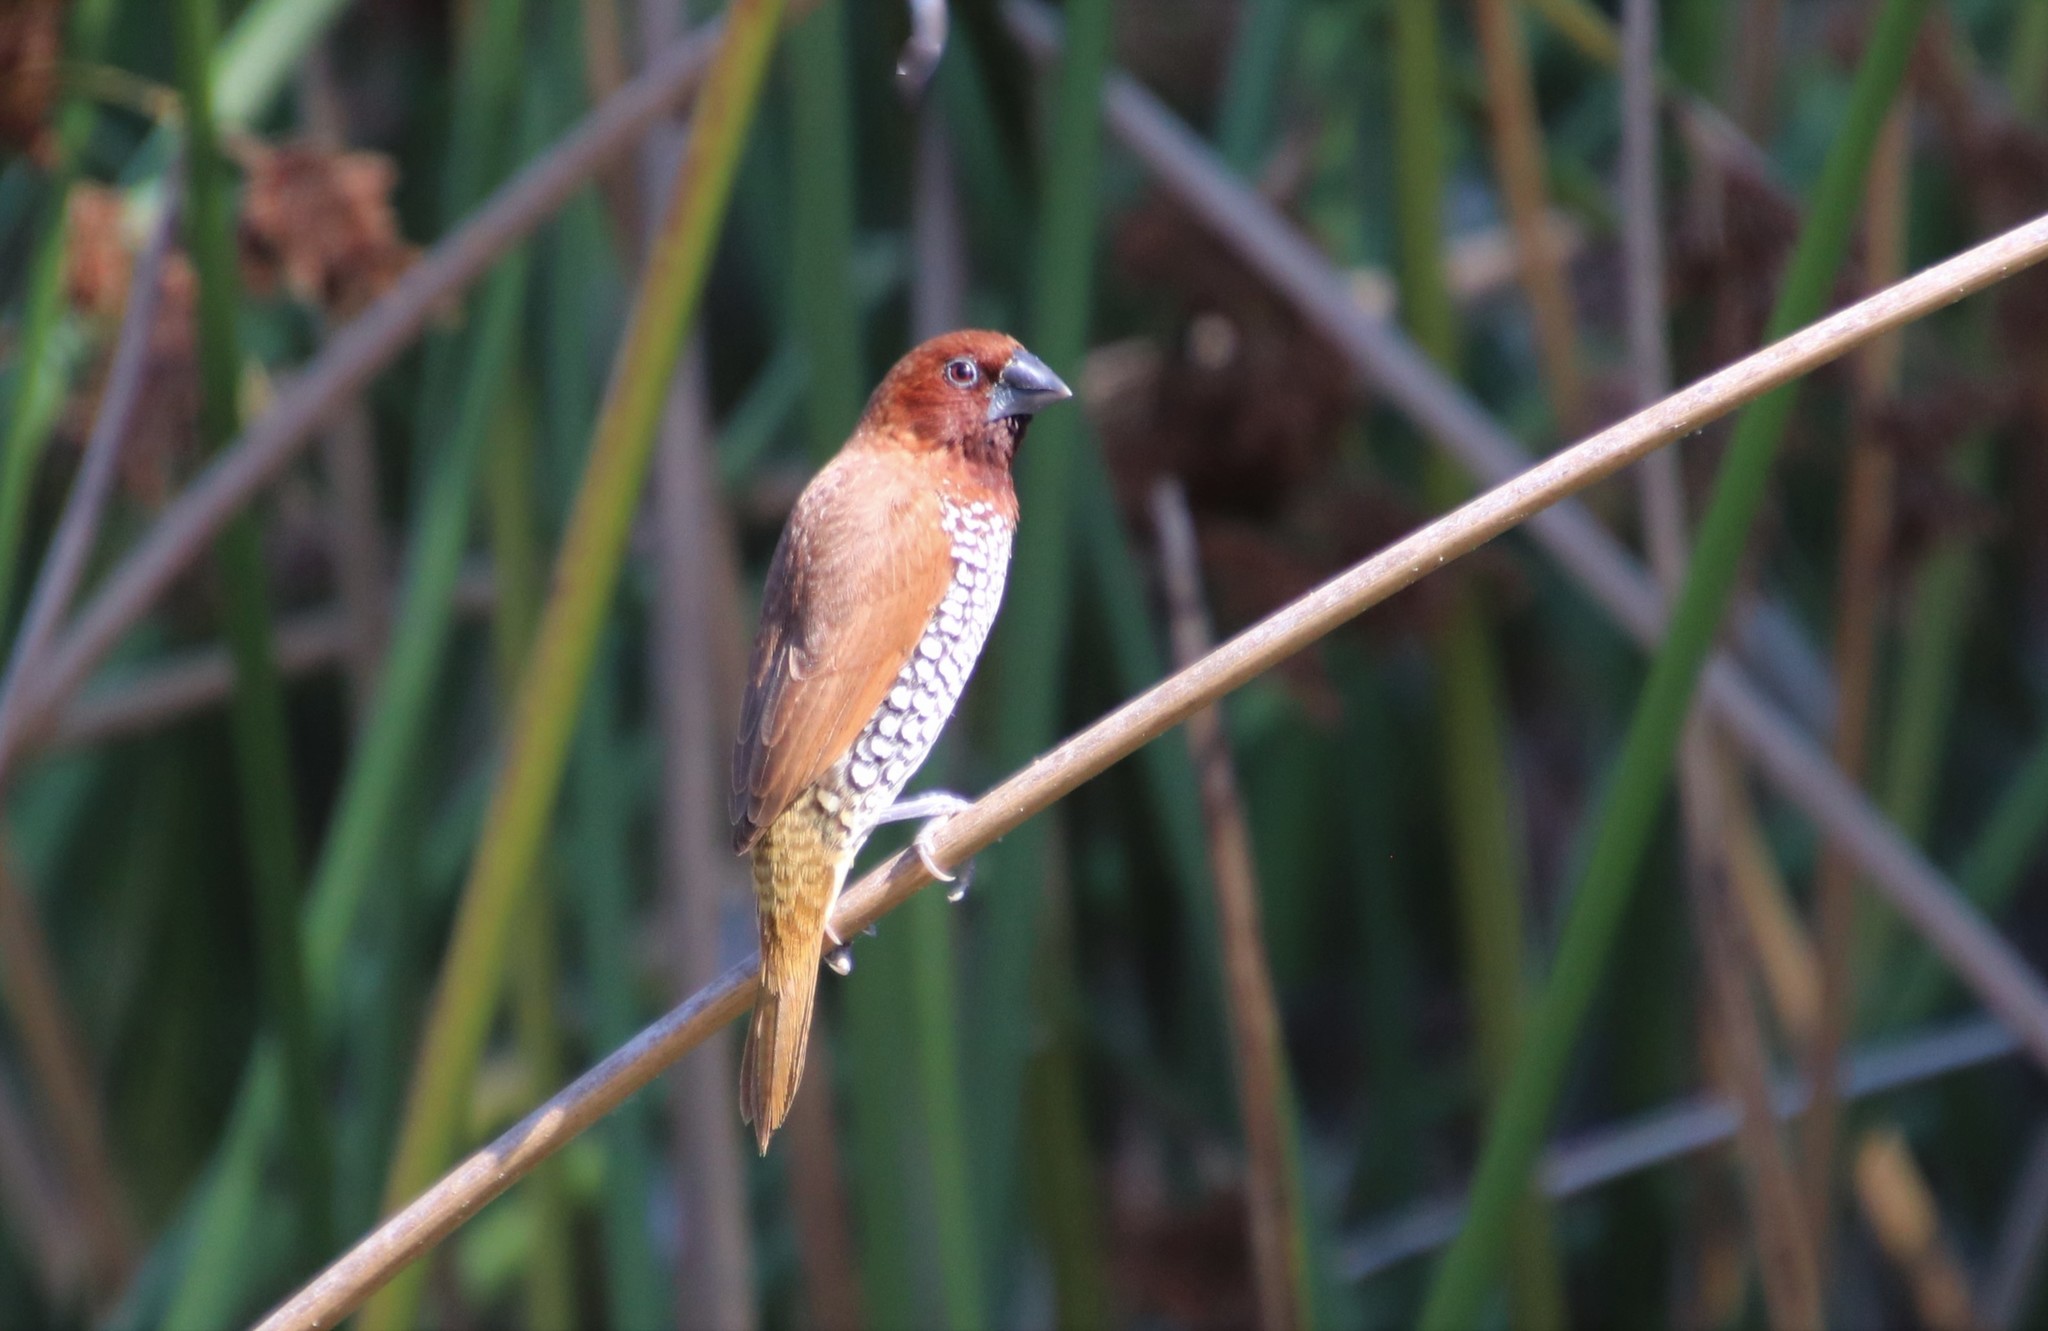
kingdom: Animalia
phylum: Chordata
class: Aves
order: Passeriformes
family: Estrildidae
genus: Lonchura
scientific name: Lonchura punctulata
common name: Scaly-breasted munia
